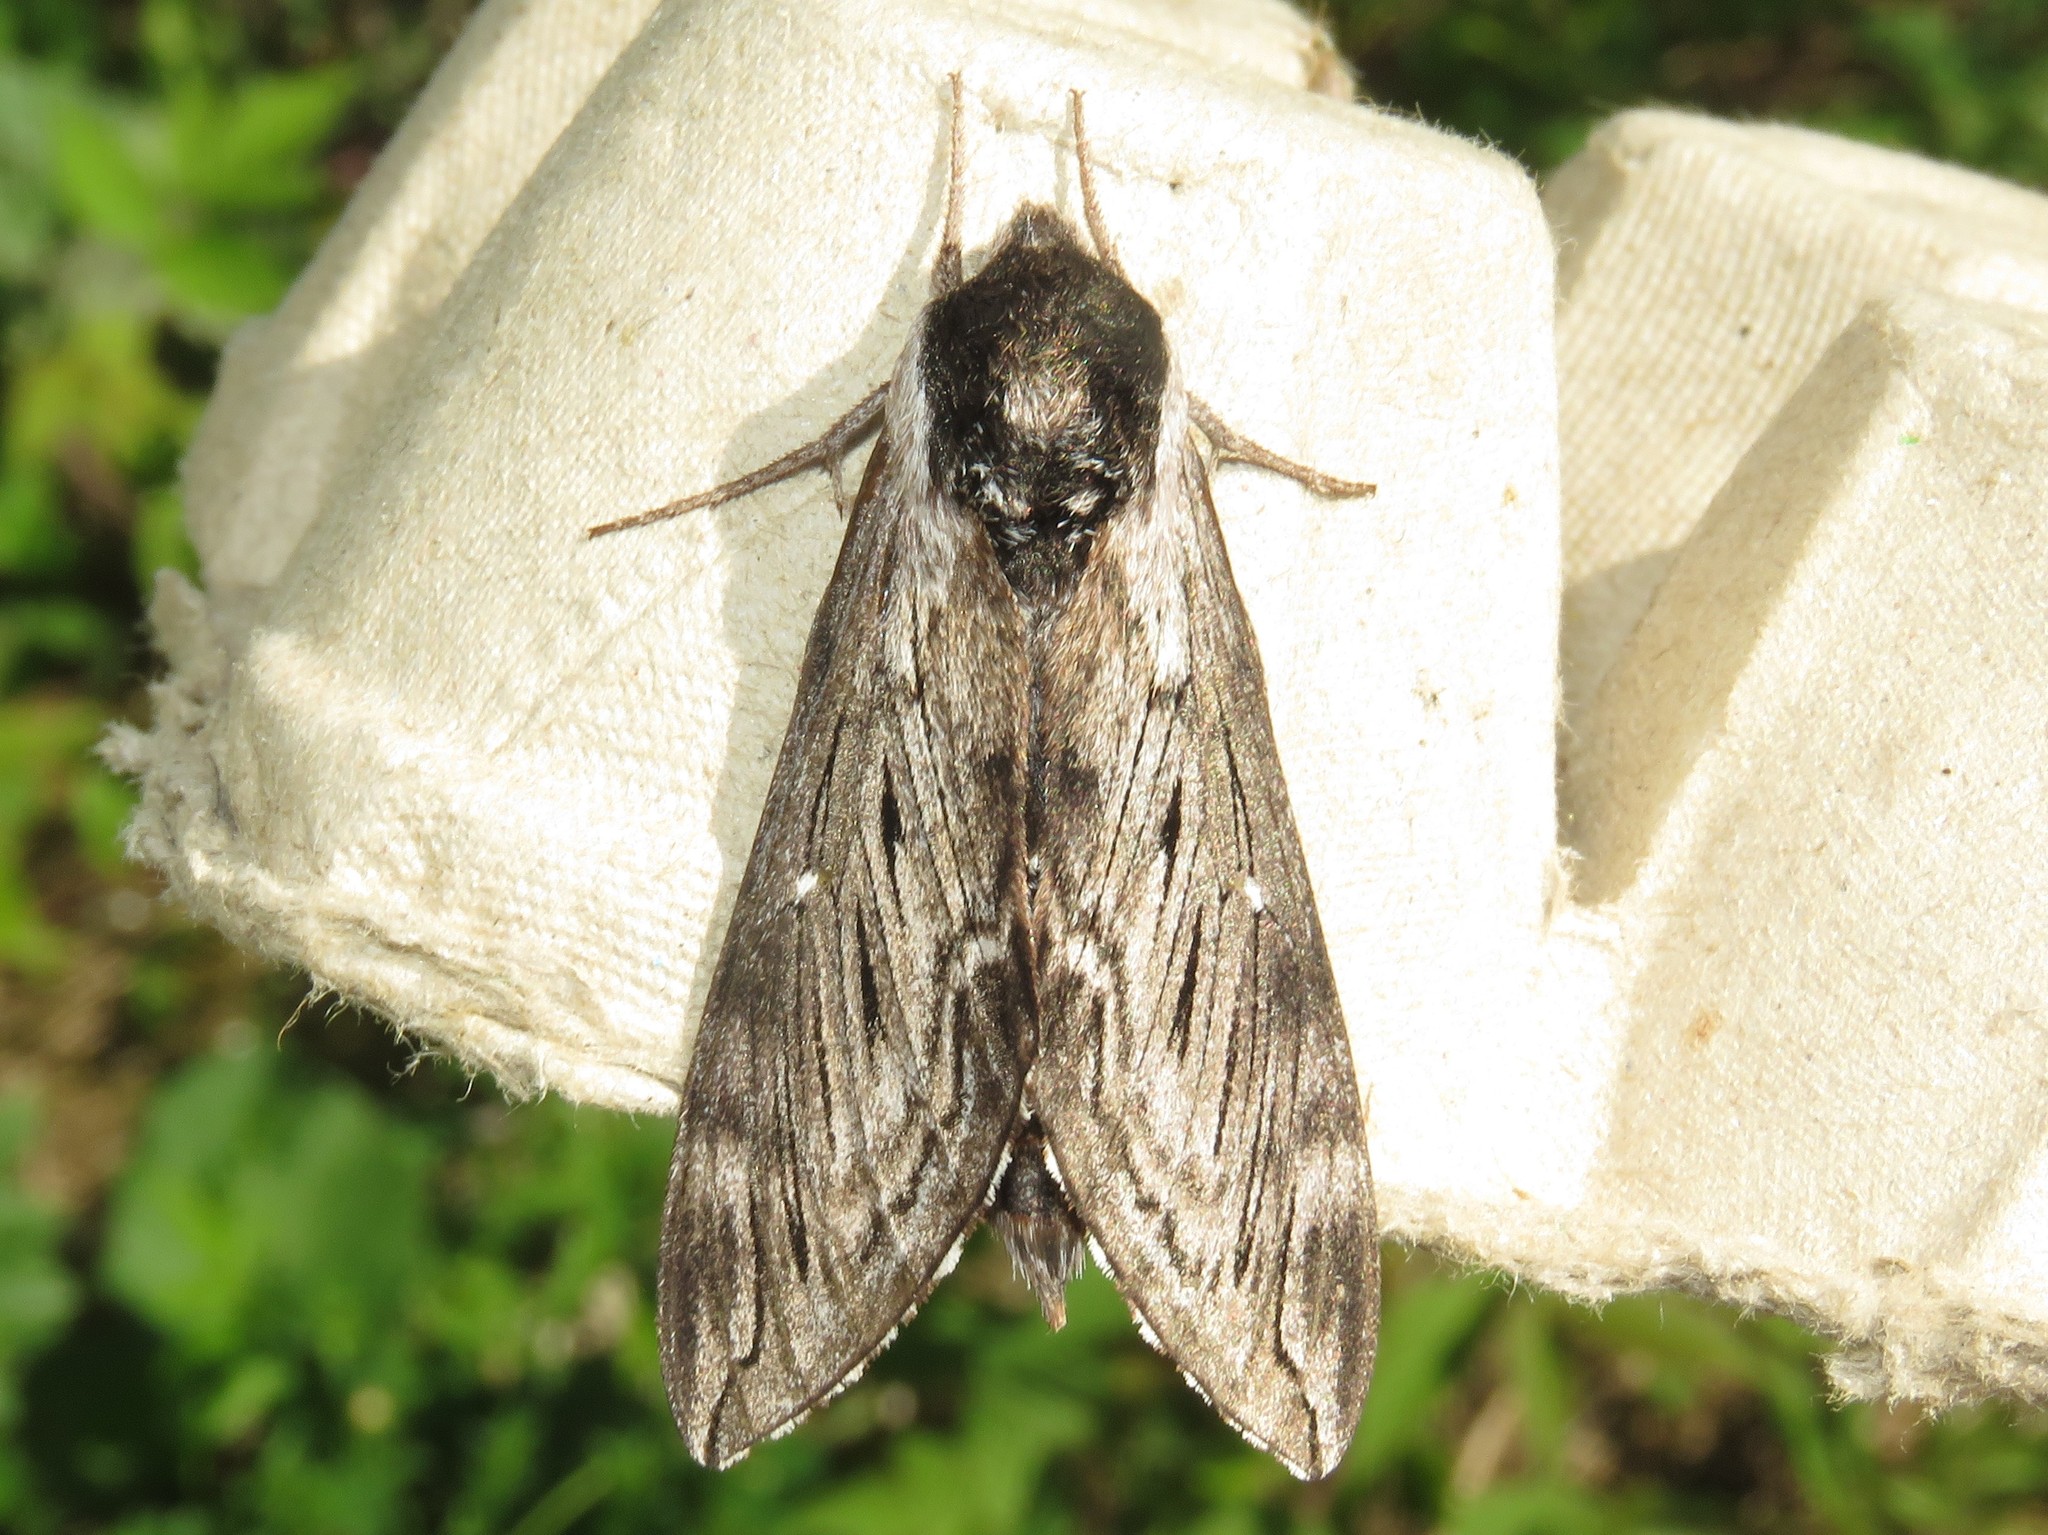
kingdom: Animalia
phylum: Arthropoda
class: Insecta
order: Lepidoptera
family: Sphingidae
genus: Sphinx
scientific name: Sphinx poecila
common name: Northern apple sphinx
